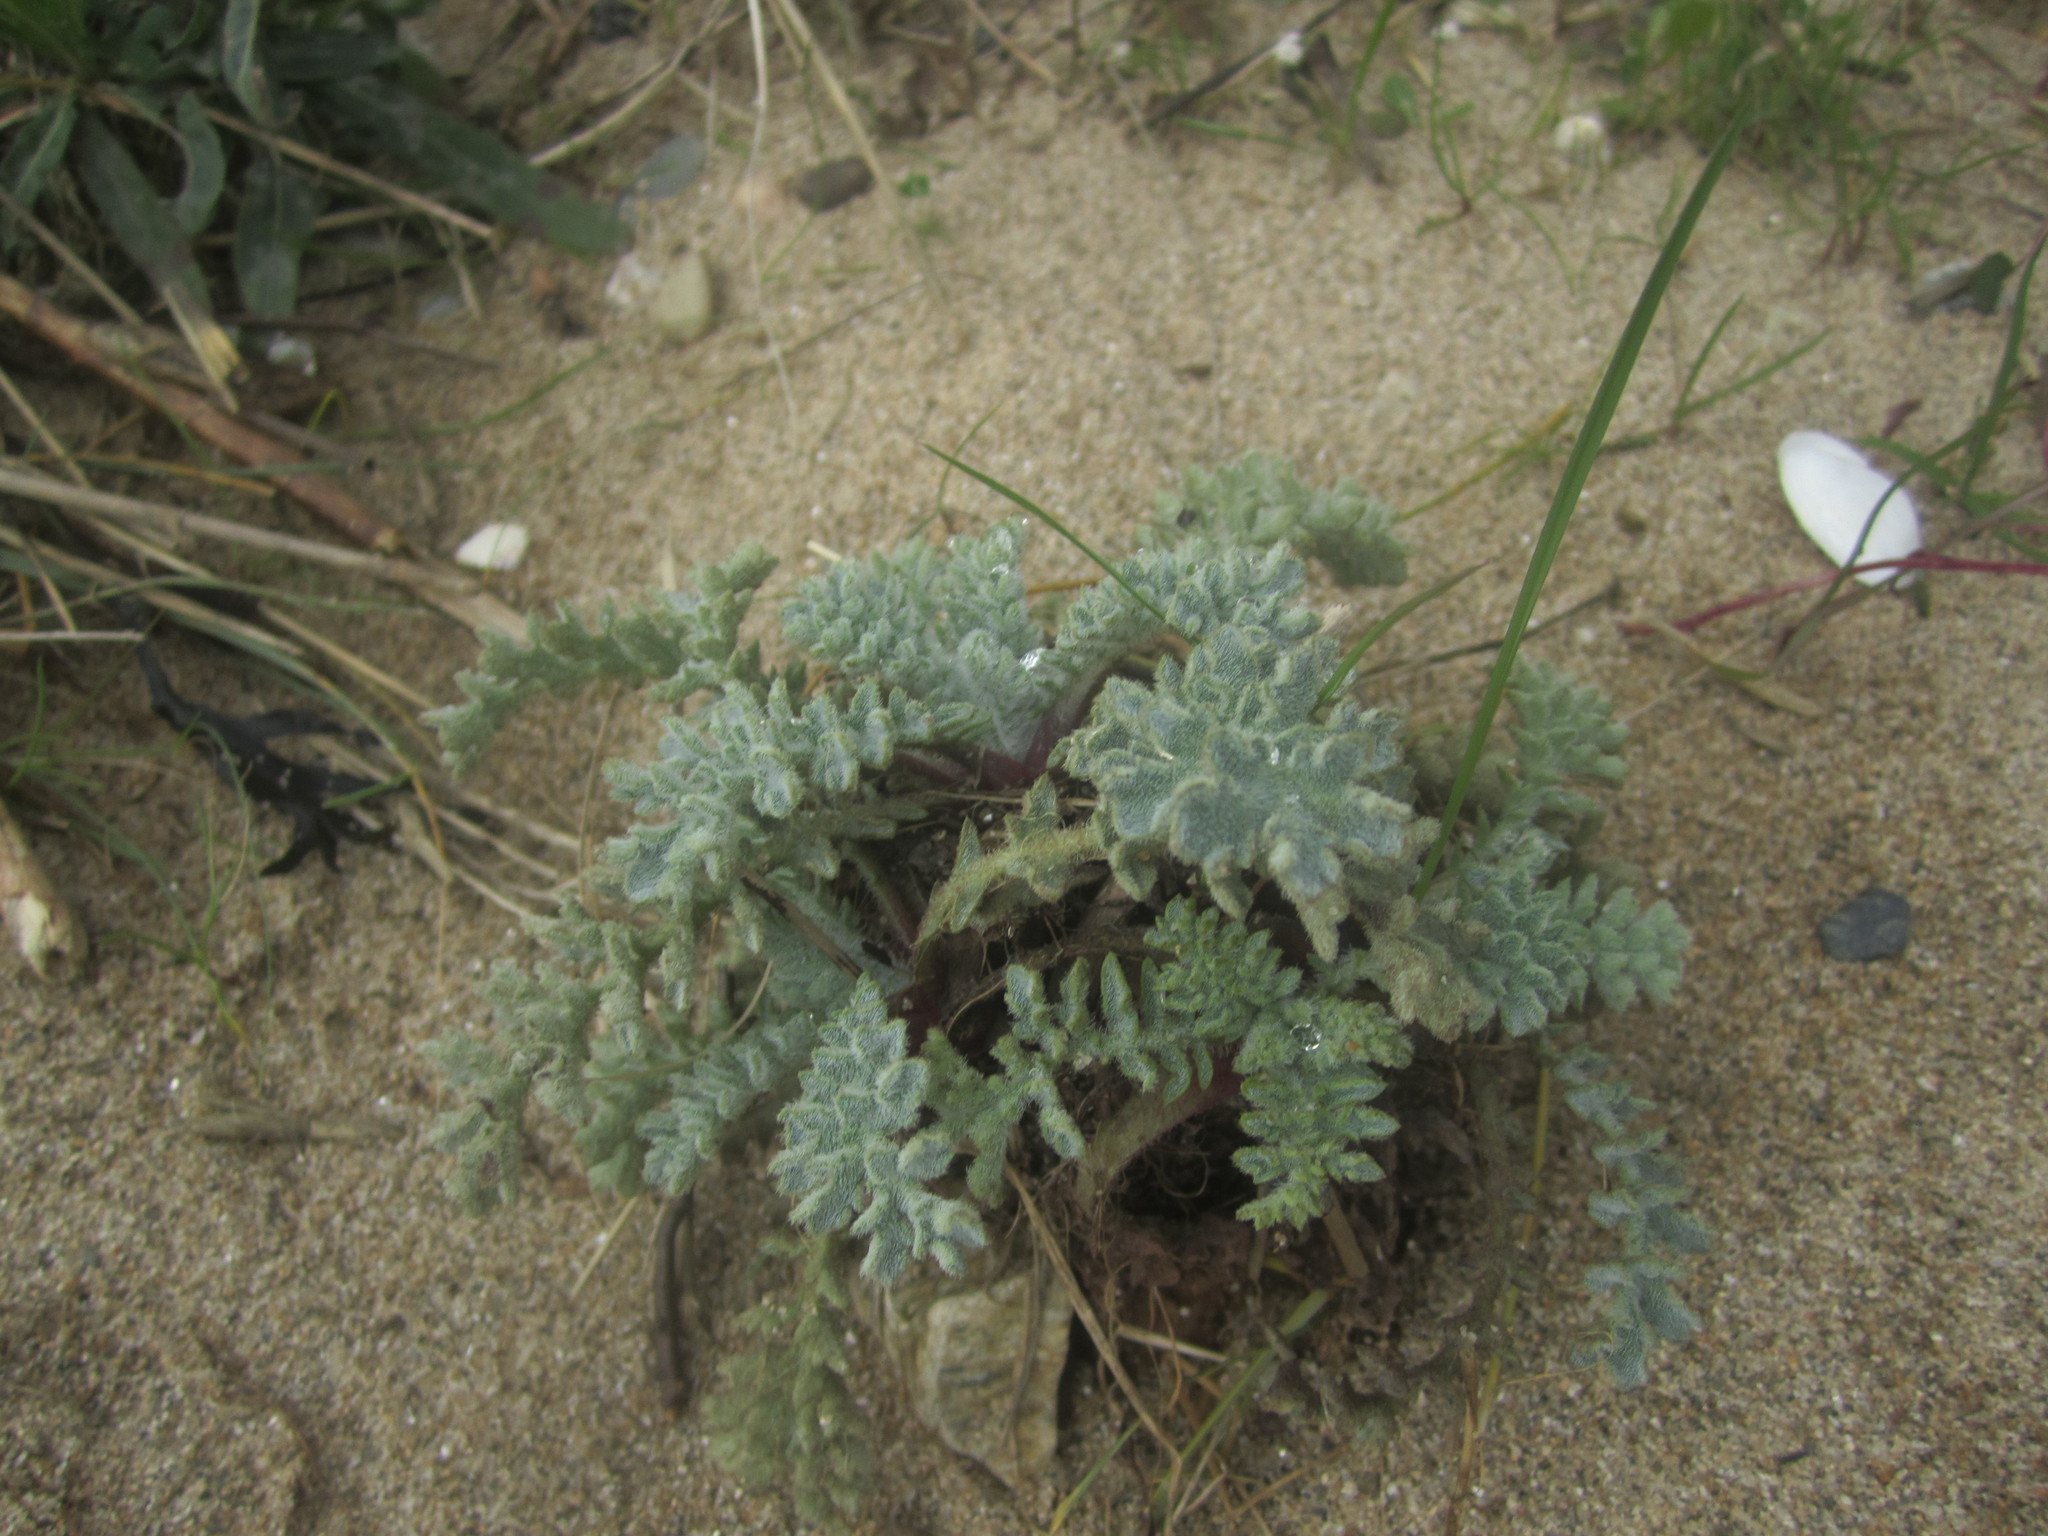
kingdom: Plantae
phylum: Tracheophyta
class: Magnoliopsida
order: Ranunculales
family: Papaveraceae
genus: Glaucium
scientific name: Glaucium flavum
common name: Yellow horned-poppy
